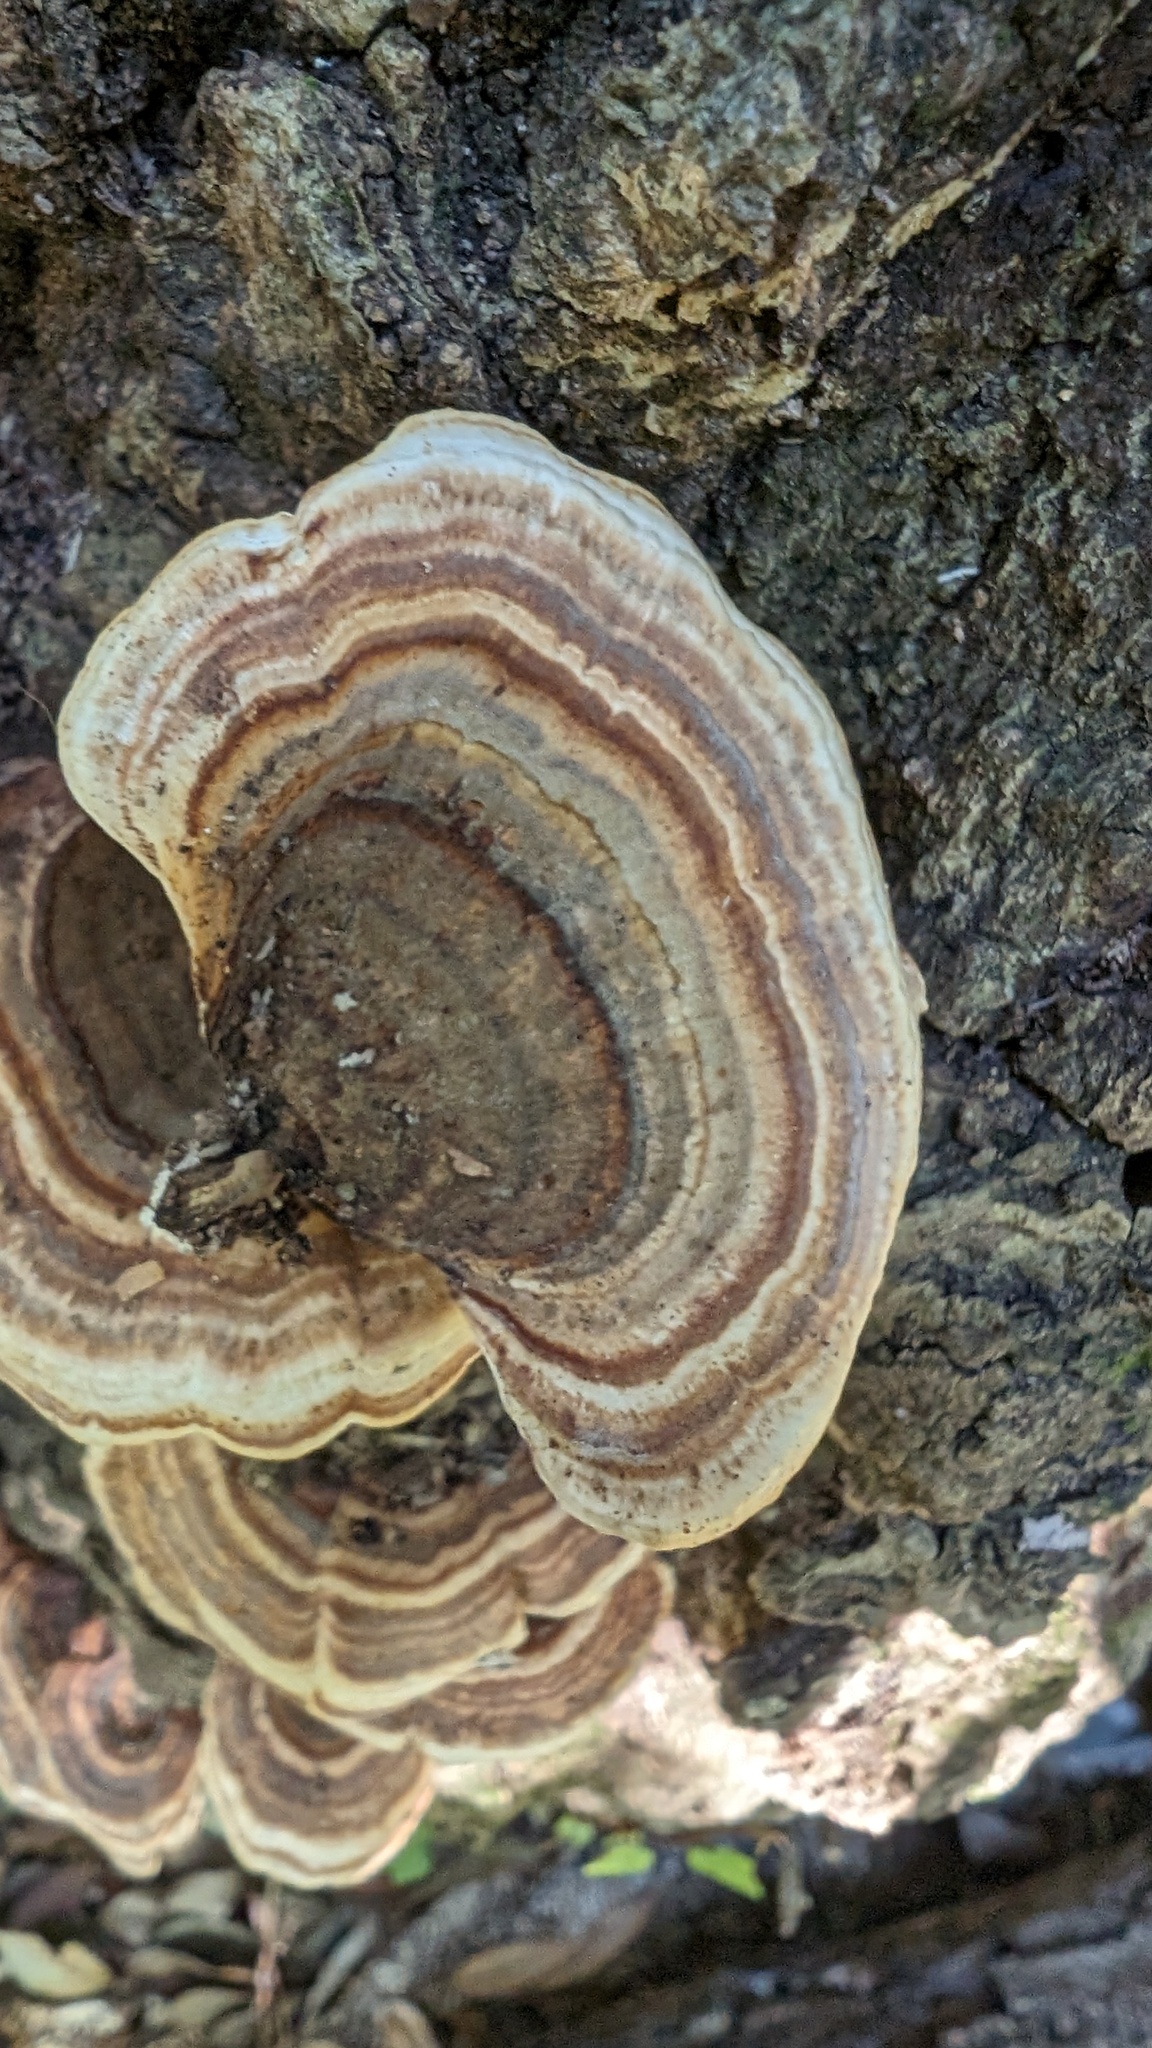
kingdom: Fungi
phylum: Basidiomycota
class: Agaricomycetes
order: Polyporales
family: Polyporaceae
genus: Microporus
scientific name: Microporus affinis
